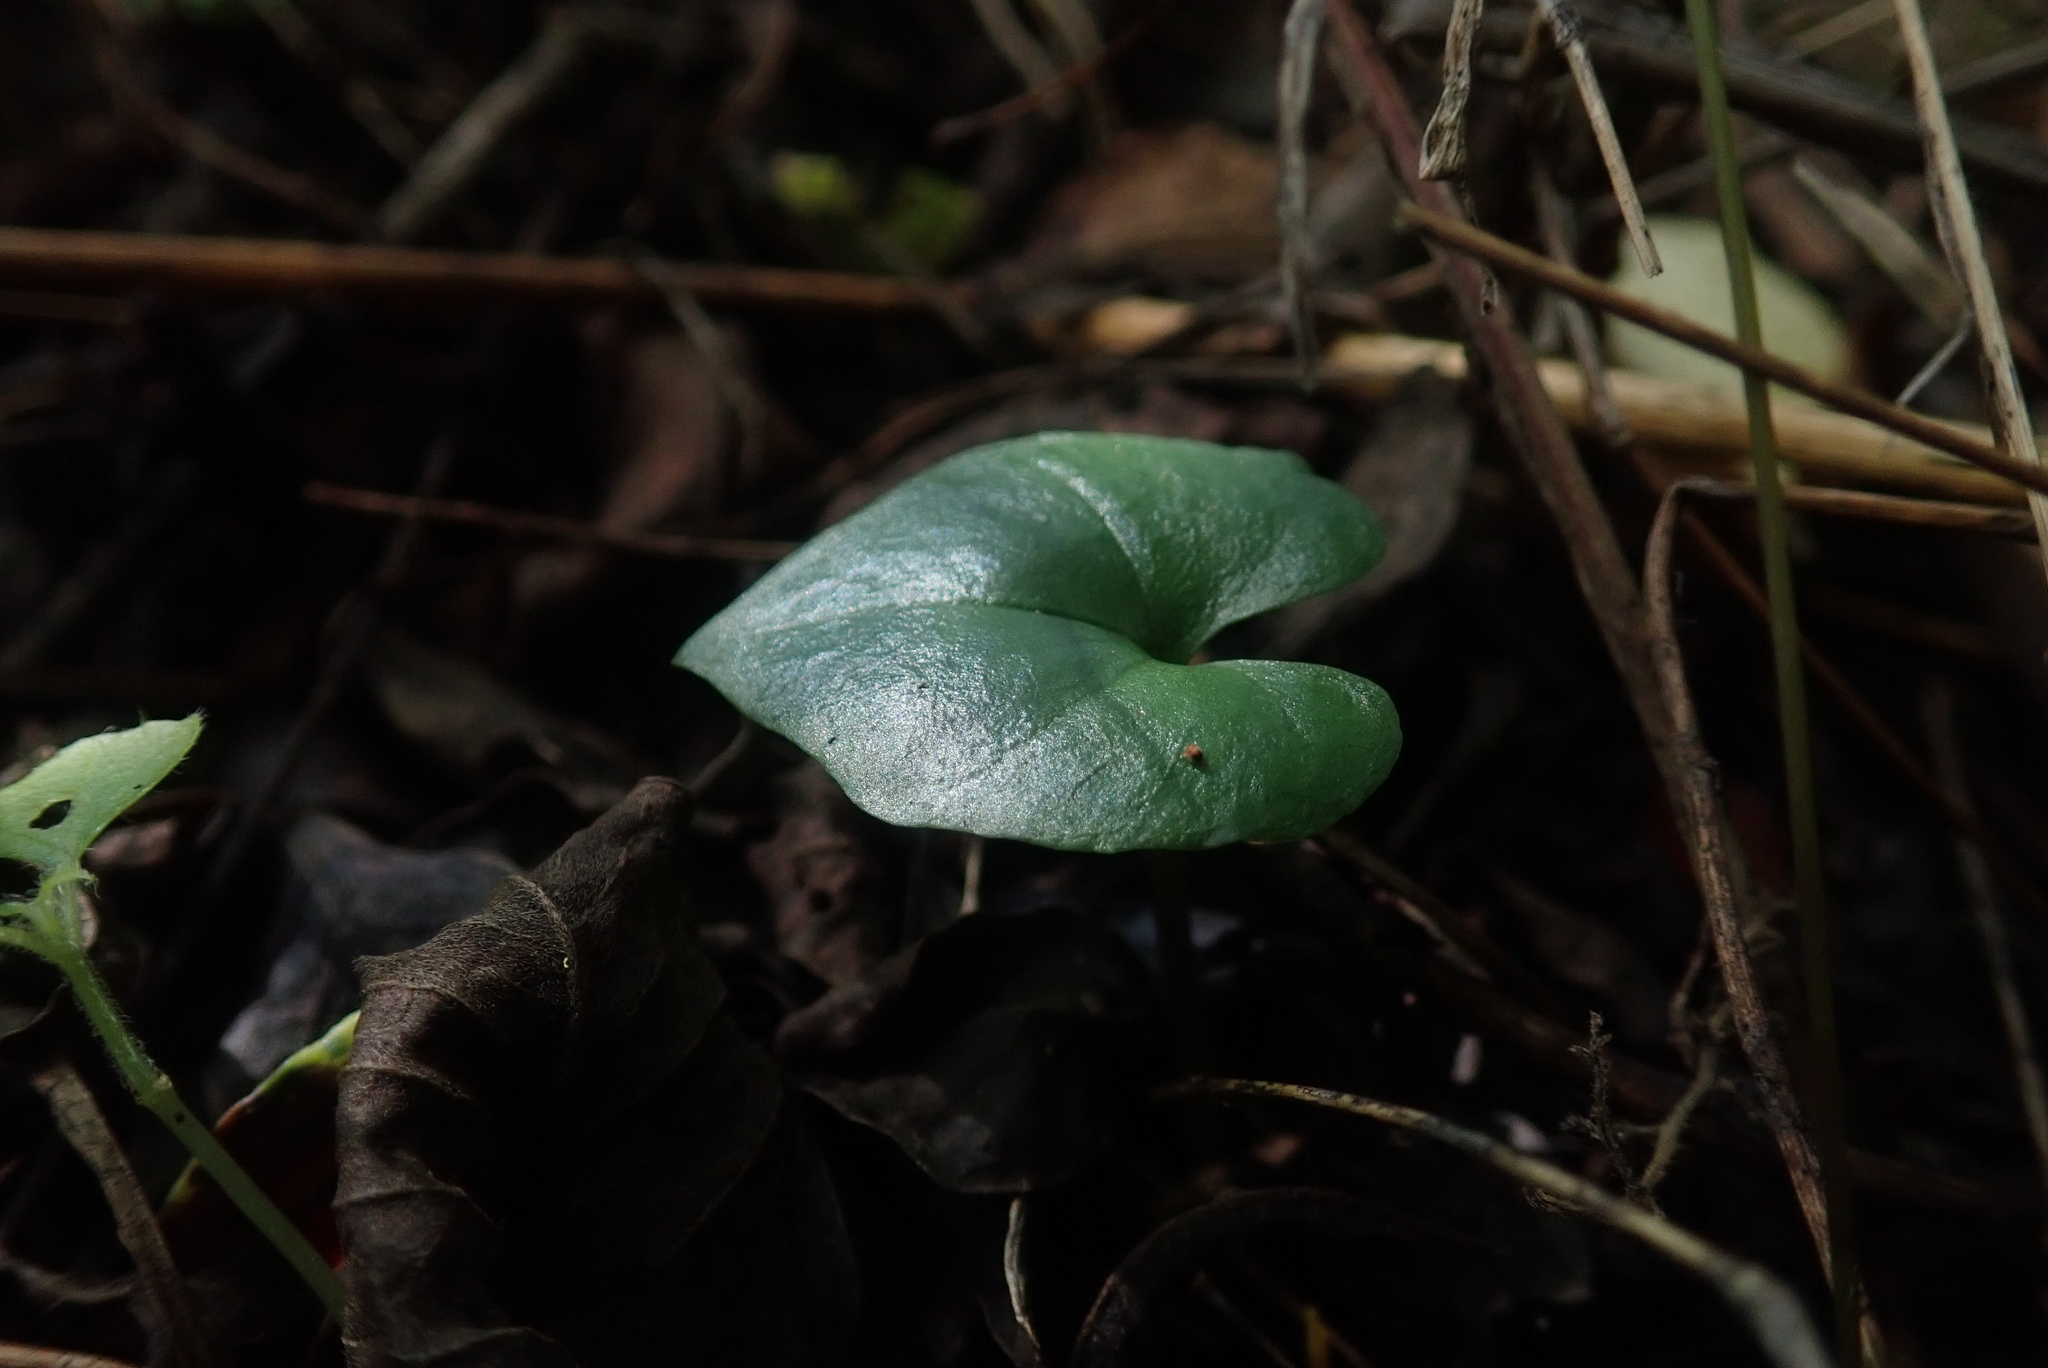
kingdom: Plantae
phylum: Tracheophyta
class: Liliopsida
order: Asparagales
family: Orchidaceae
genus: Nervilia
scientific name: Nervilia lilacea
